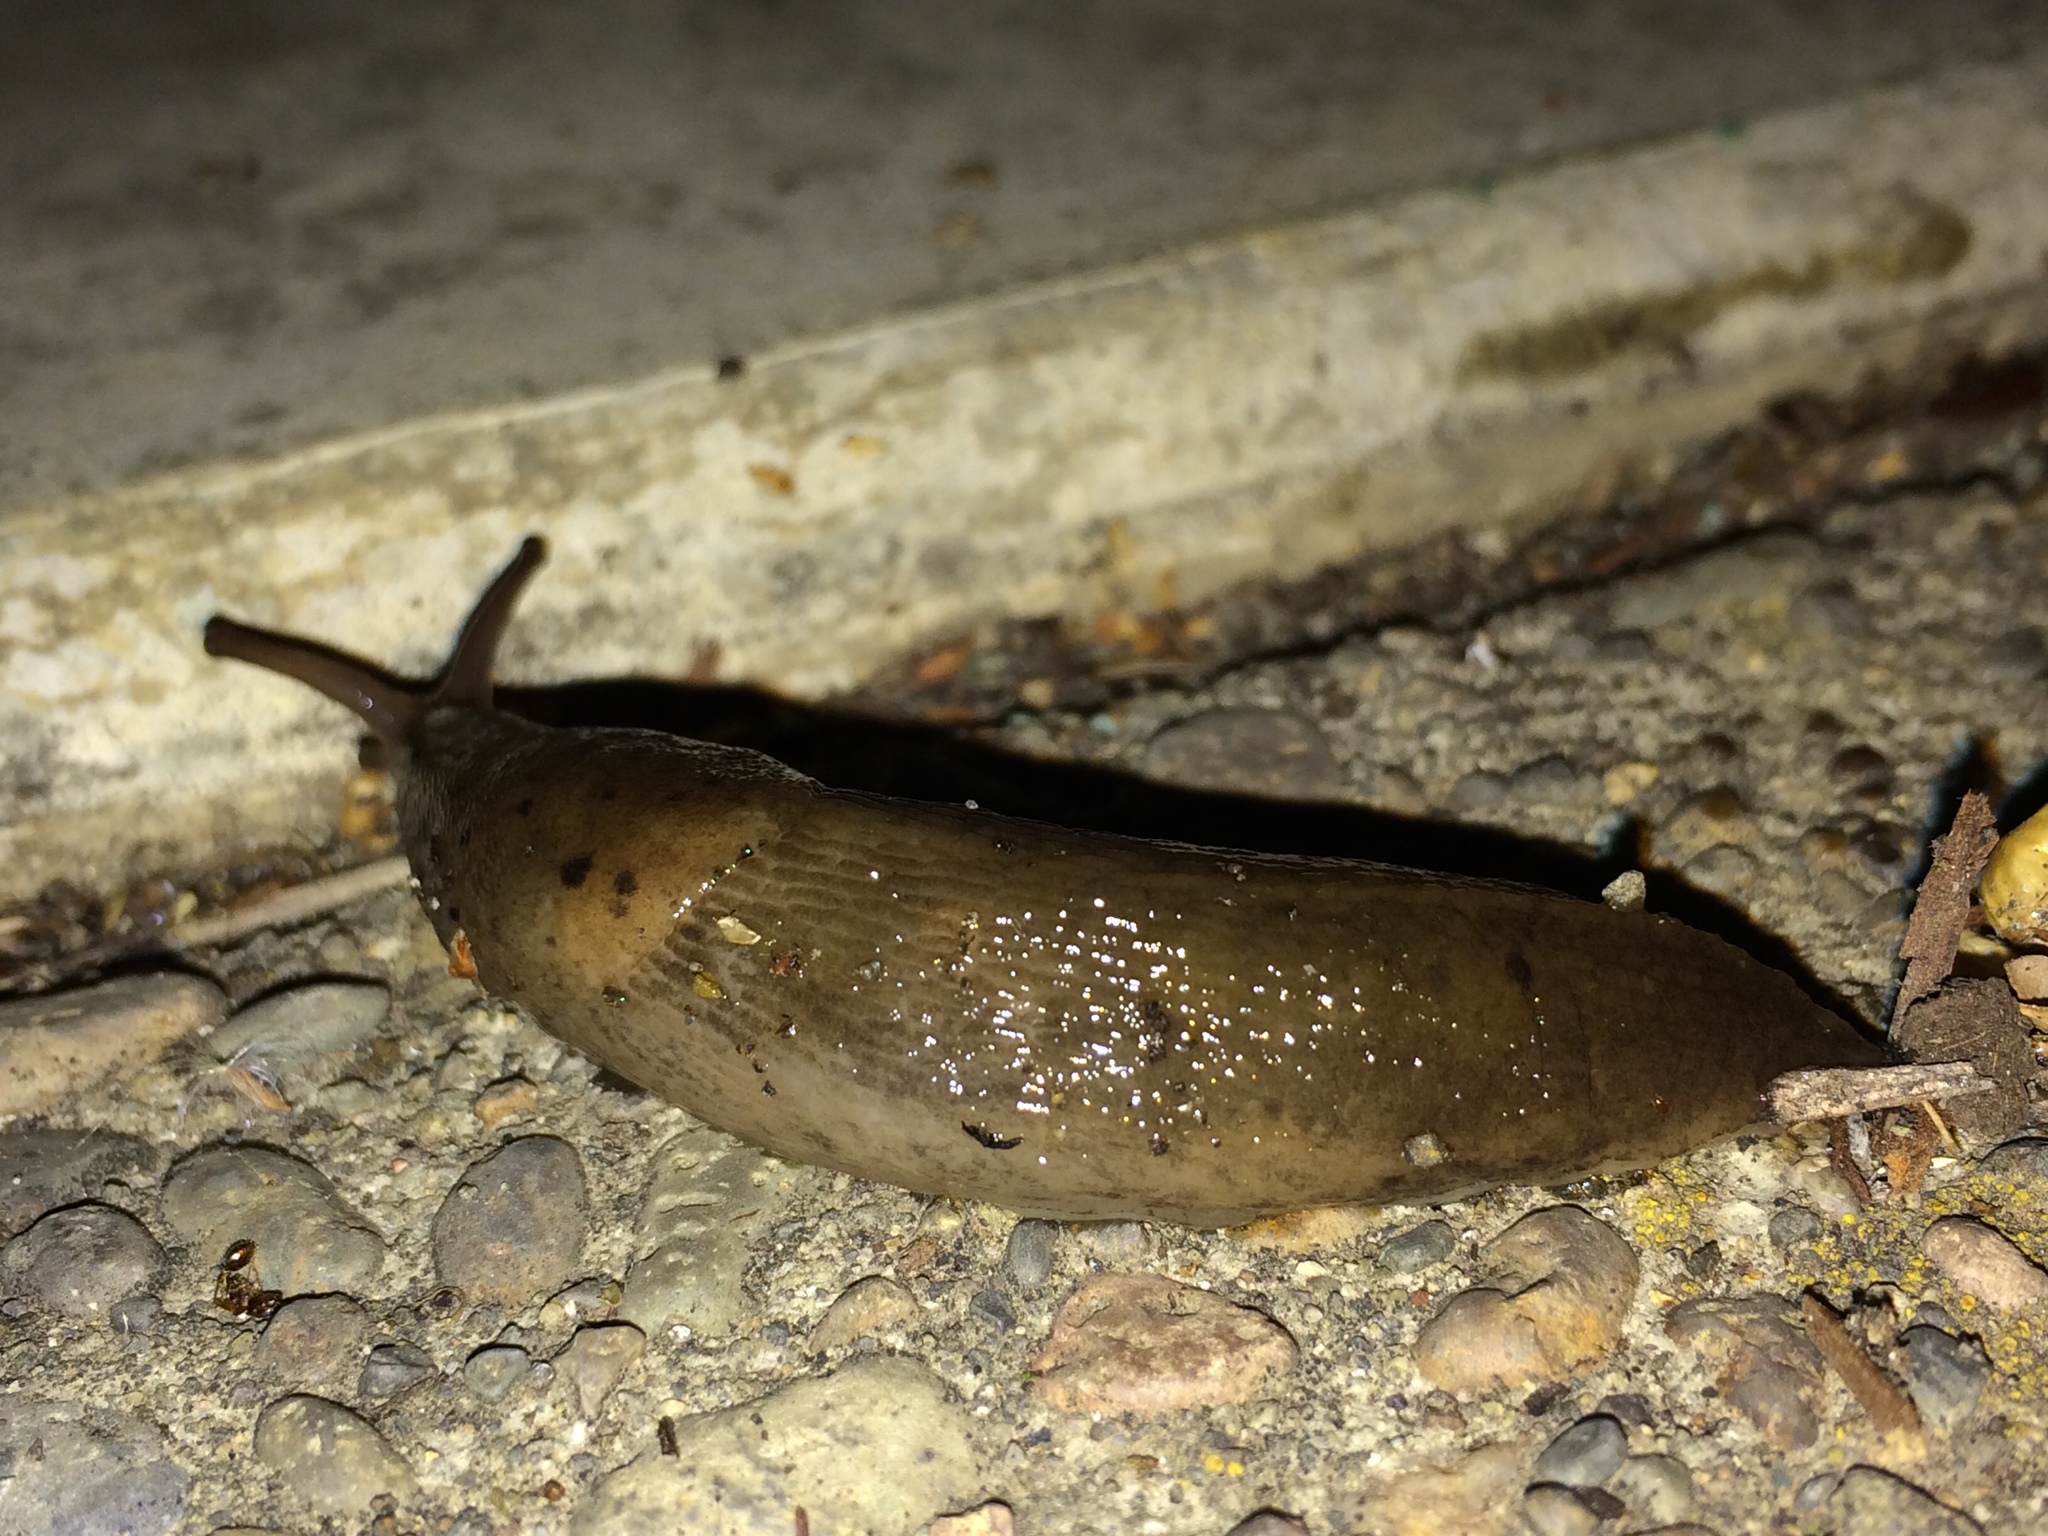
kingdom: Animalia
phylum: Mollusca
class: Gastropoda
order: Stylommatophora
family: Limacidae
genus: Limax
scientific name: Limax maximus
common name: Great grey slug
